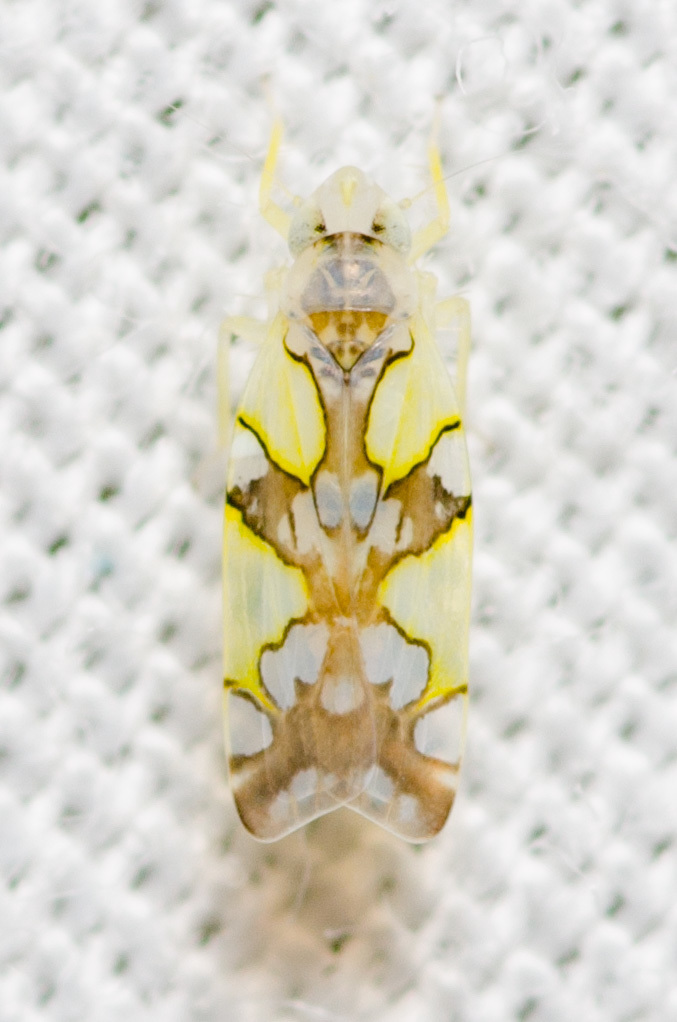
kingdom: Animalia
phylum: Arthropoda
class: Insecta
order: Hemiptera
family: Cicadellidae
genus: Protalebrella
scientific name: Protalebrella conica
